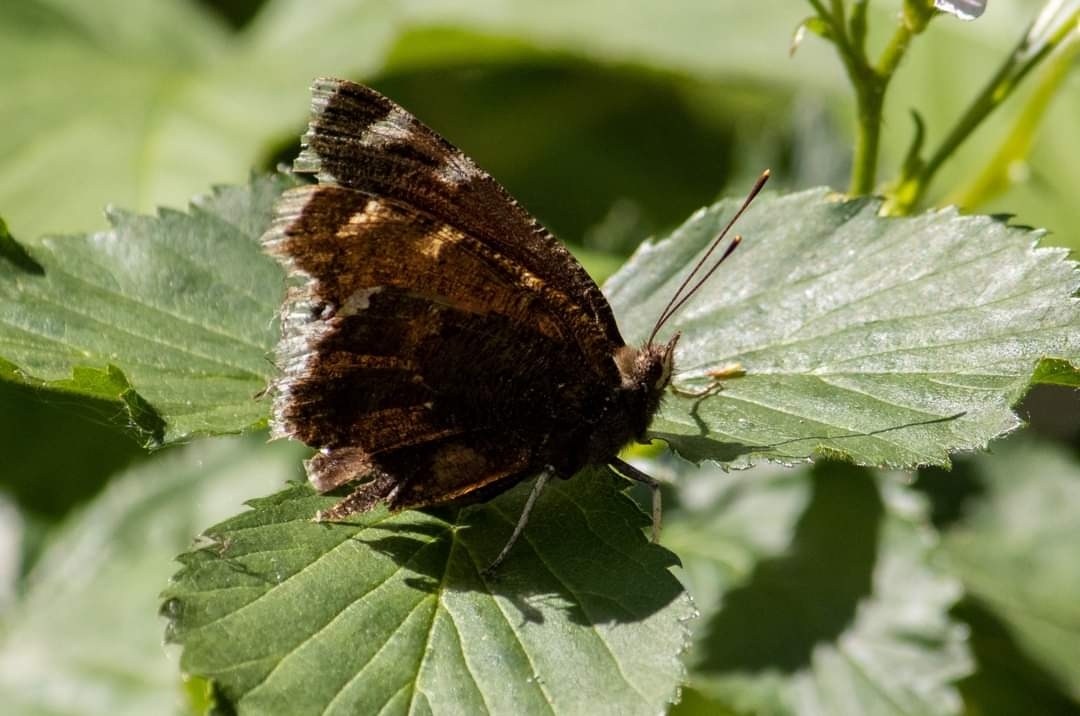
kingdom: Animalia
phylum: Arthropoda
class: Insecta
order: Lepidoptera
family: Nymphalidae
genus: Nymphalis
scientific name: Nymphalis antiopa
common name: Camberwell beauty
